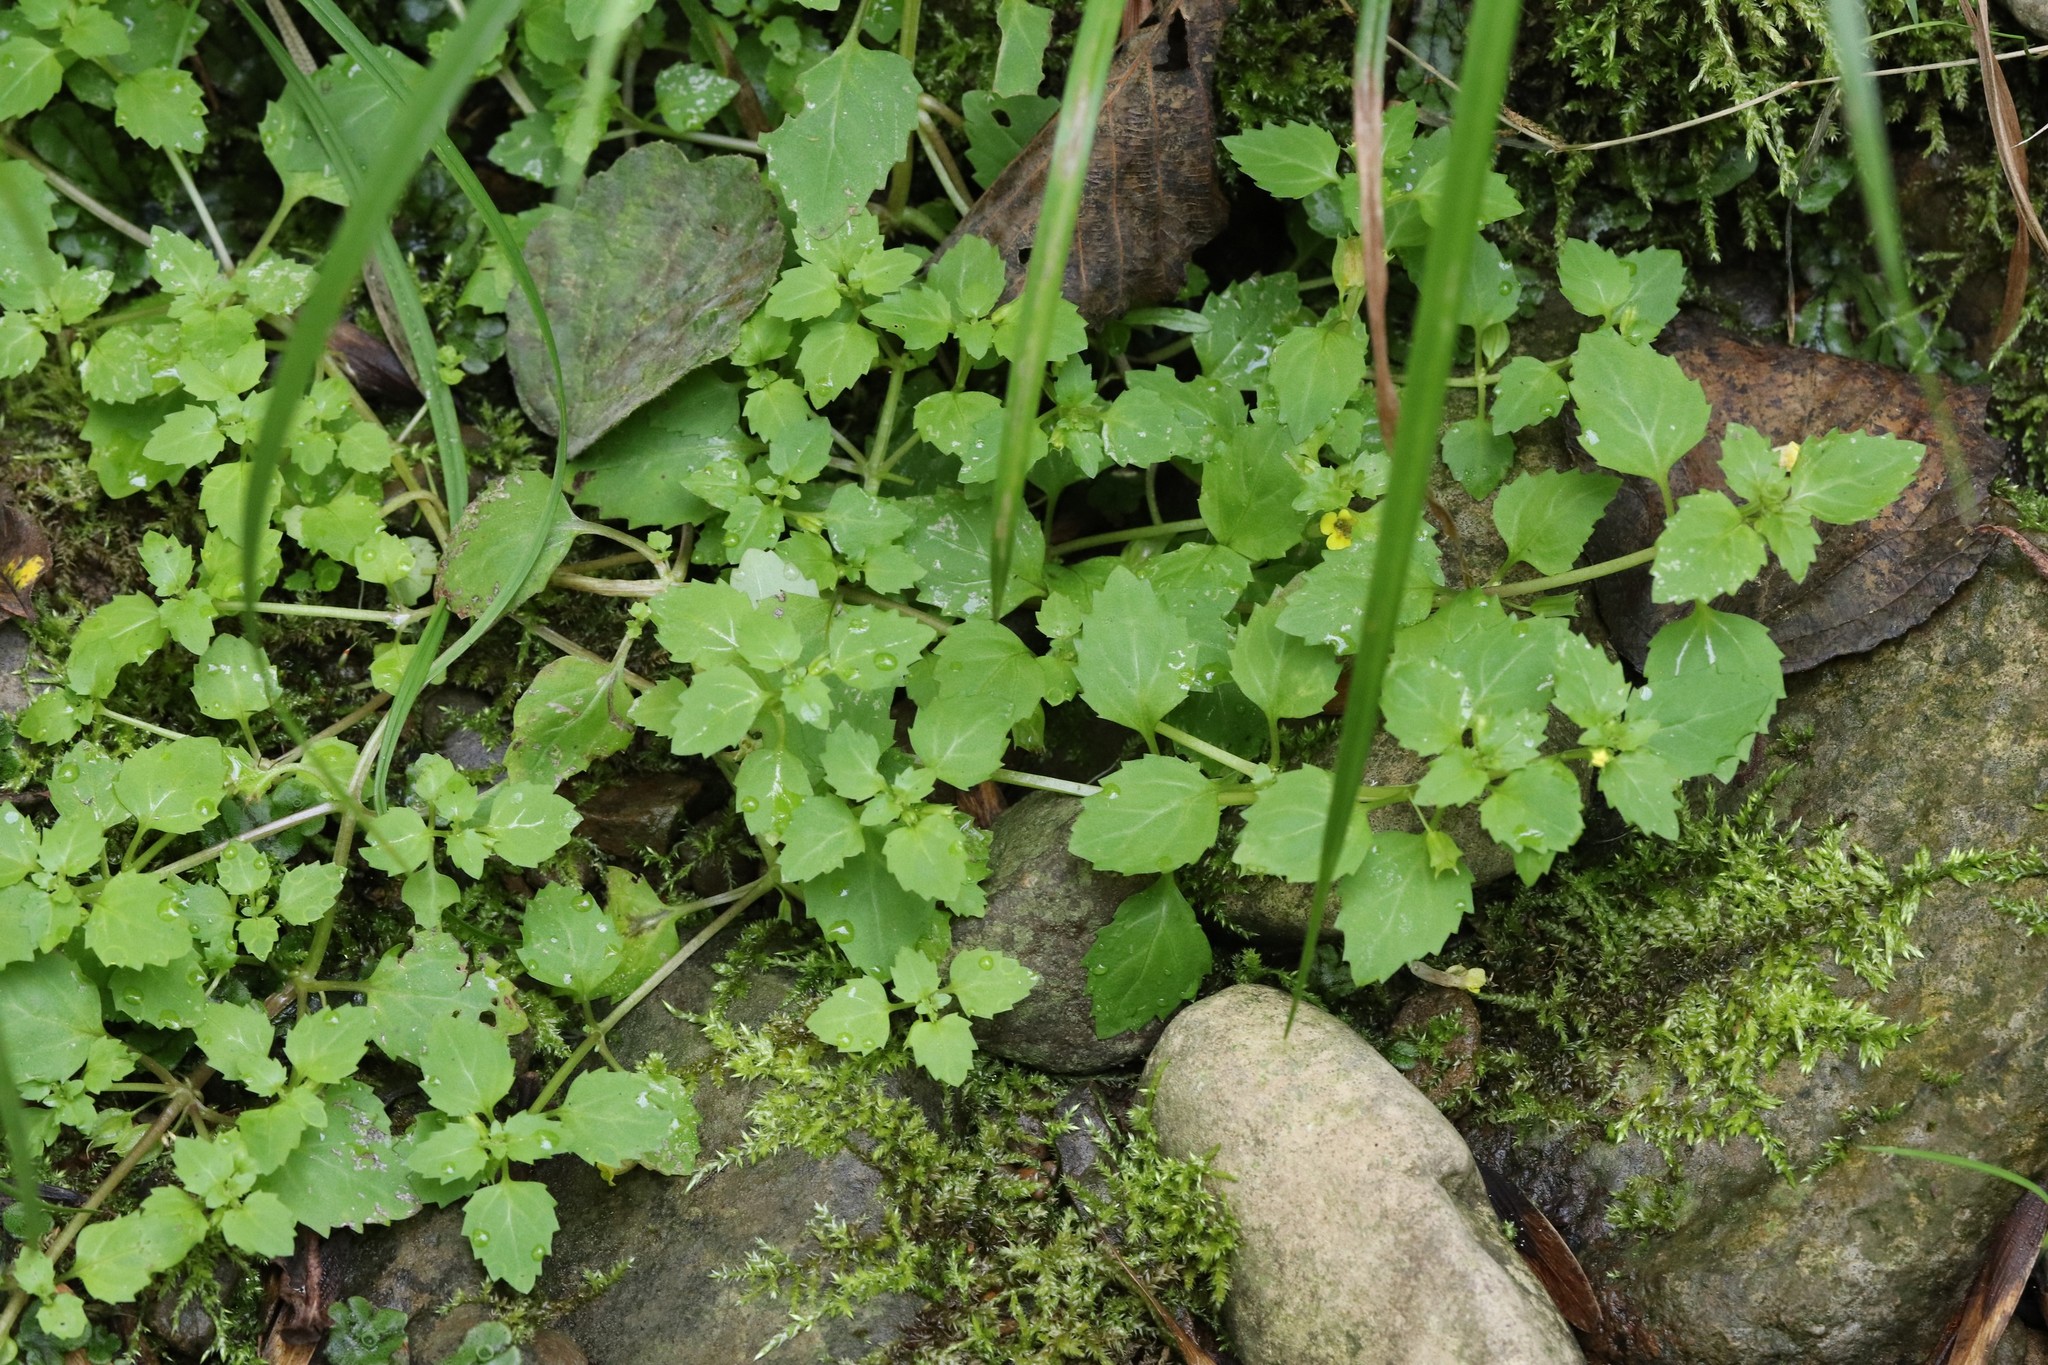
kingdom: Plantae
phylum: Tracheophyta
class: Magnoliopsida
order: Lamiales
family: Phrymaceae
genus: Erythranthe
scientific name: Erythranthe tenella
